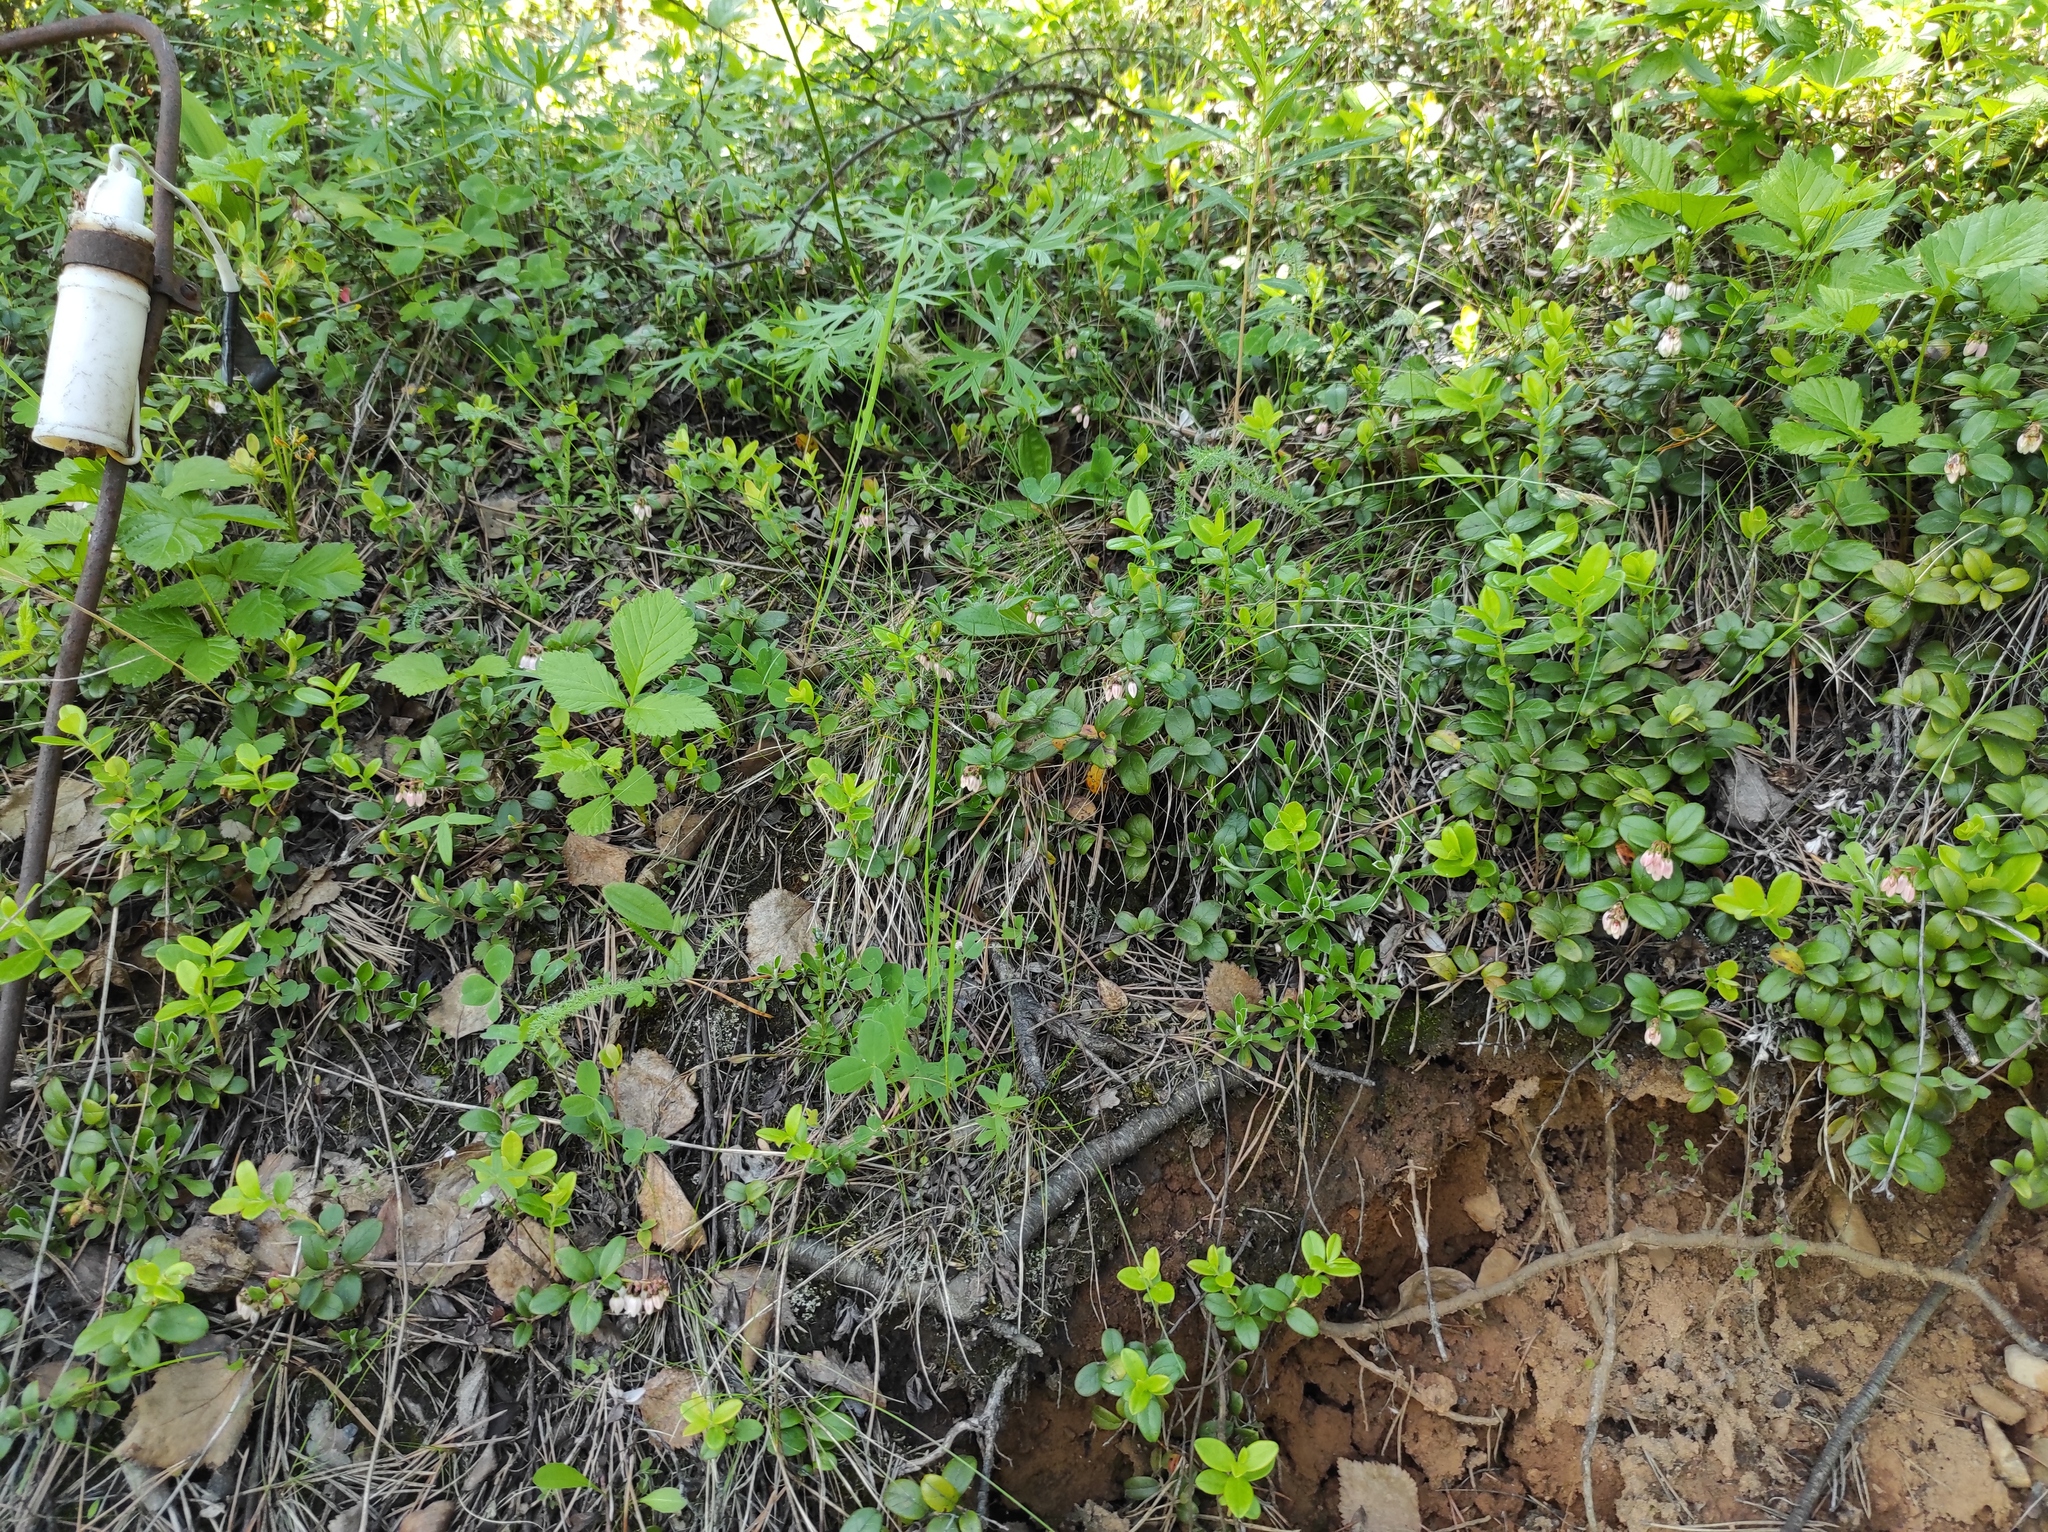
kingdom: Plantae
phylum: Tracheophyta
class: Magnoliopsida
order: Rosales
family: Rosaceae
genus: Rubus
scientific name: Rubus saxatilis
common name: Stone bramble
